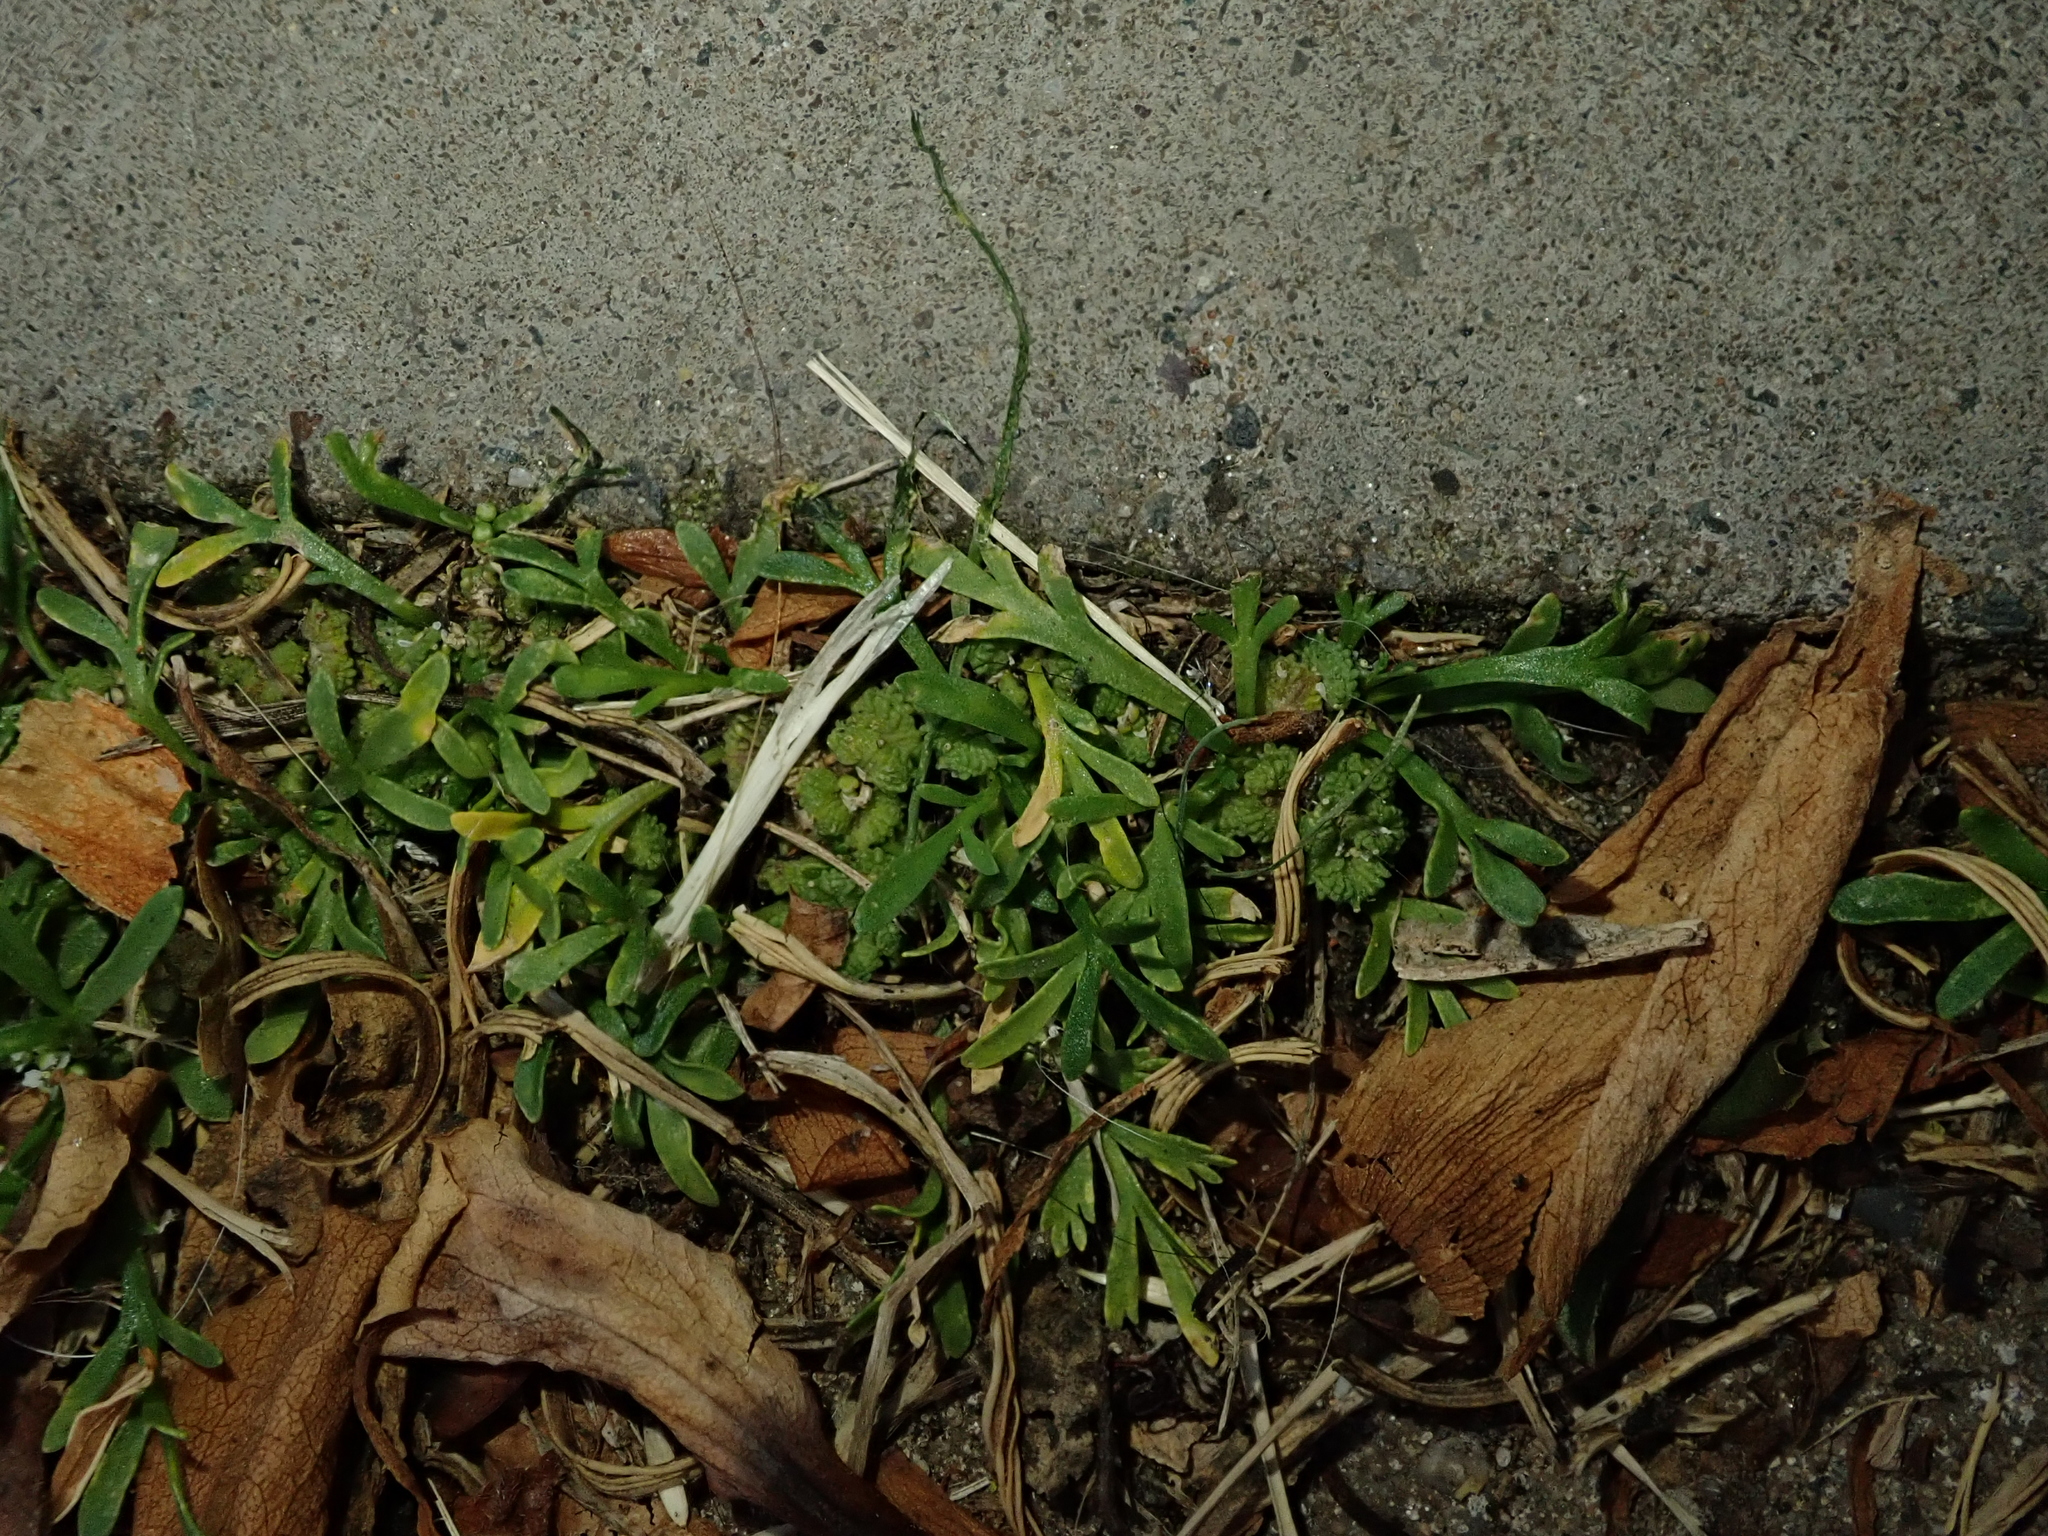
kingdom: Plantae
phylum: Tracheophyta
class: Magnoliopsida
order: Brassicales
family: Brassicaceae
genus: Lepidium
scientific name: Lepidium coronopus
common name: Greater swinecress
